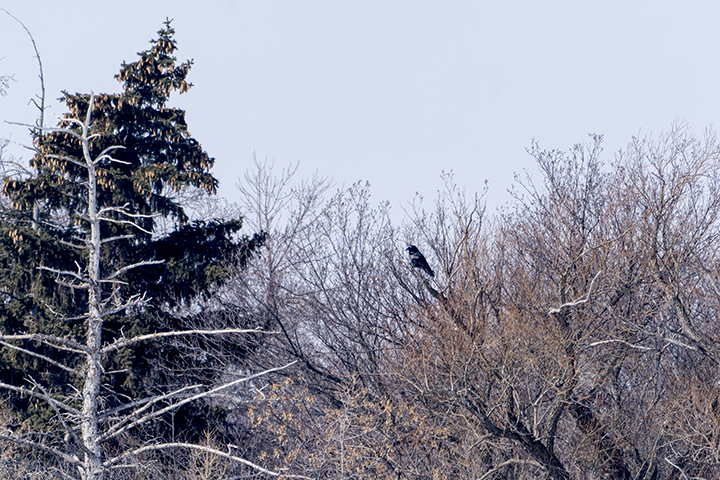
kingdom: Animalia
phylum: Chordata
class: Aves
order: Passeriformes
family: Corvidae
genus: Corvus
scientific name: Corvus corax
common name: Common raven
